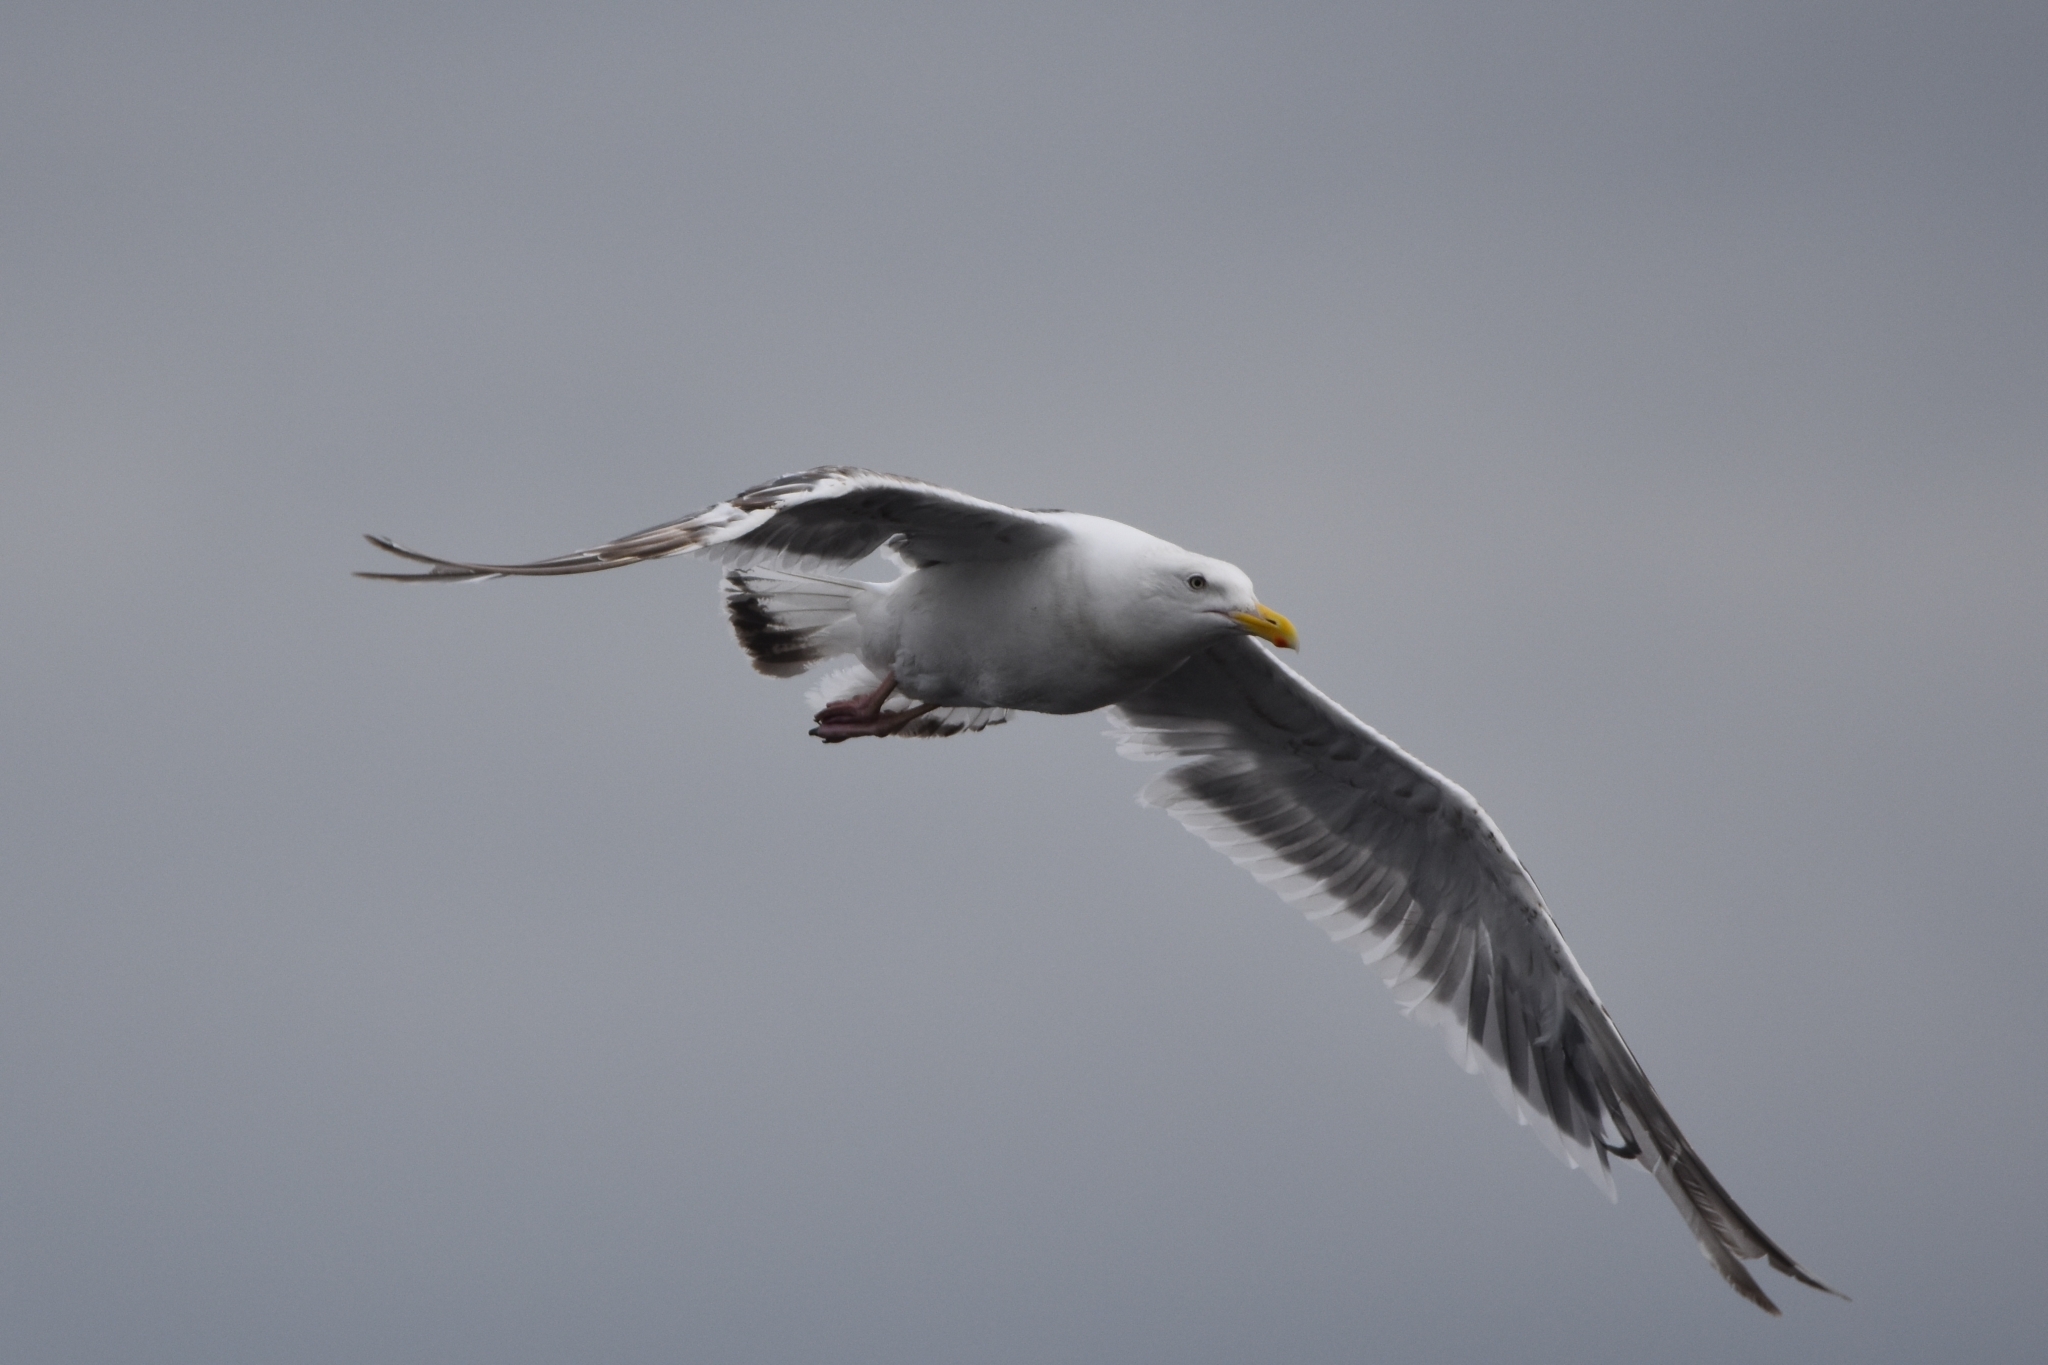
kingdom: Animalia
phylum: Chordata
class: Aves
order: Charadriiformes
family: Laridae
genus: Larus
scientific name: Larus schistisagus
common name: Slaty-backed gull
